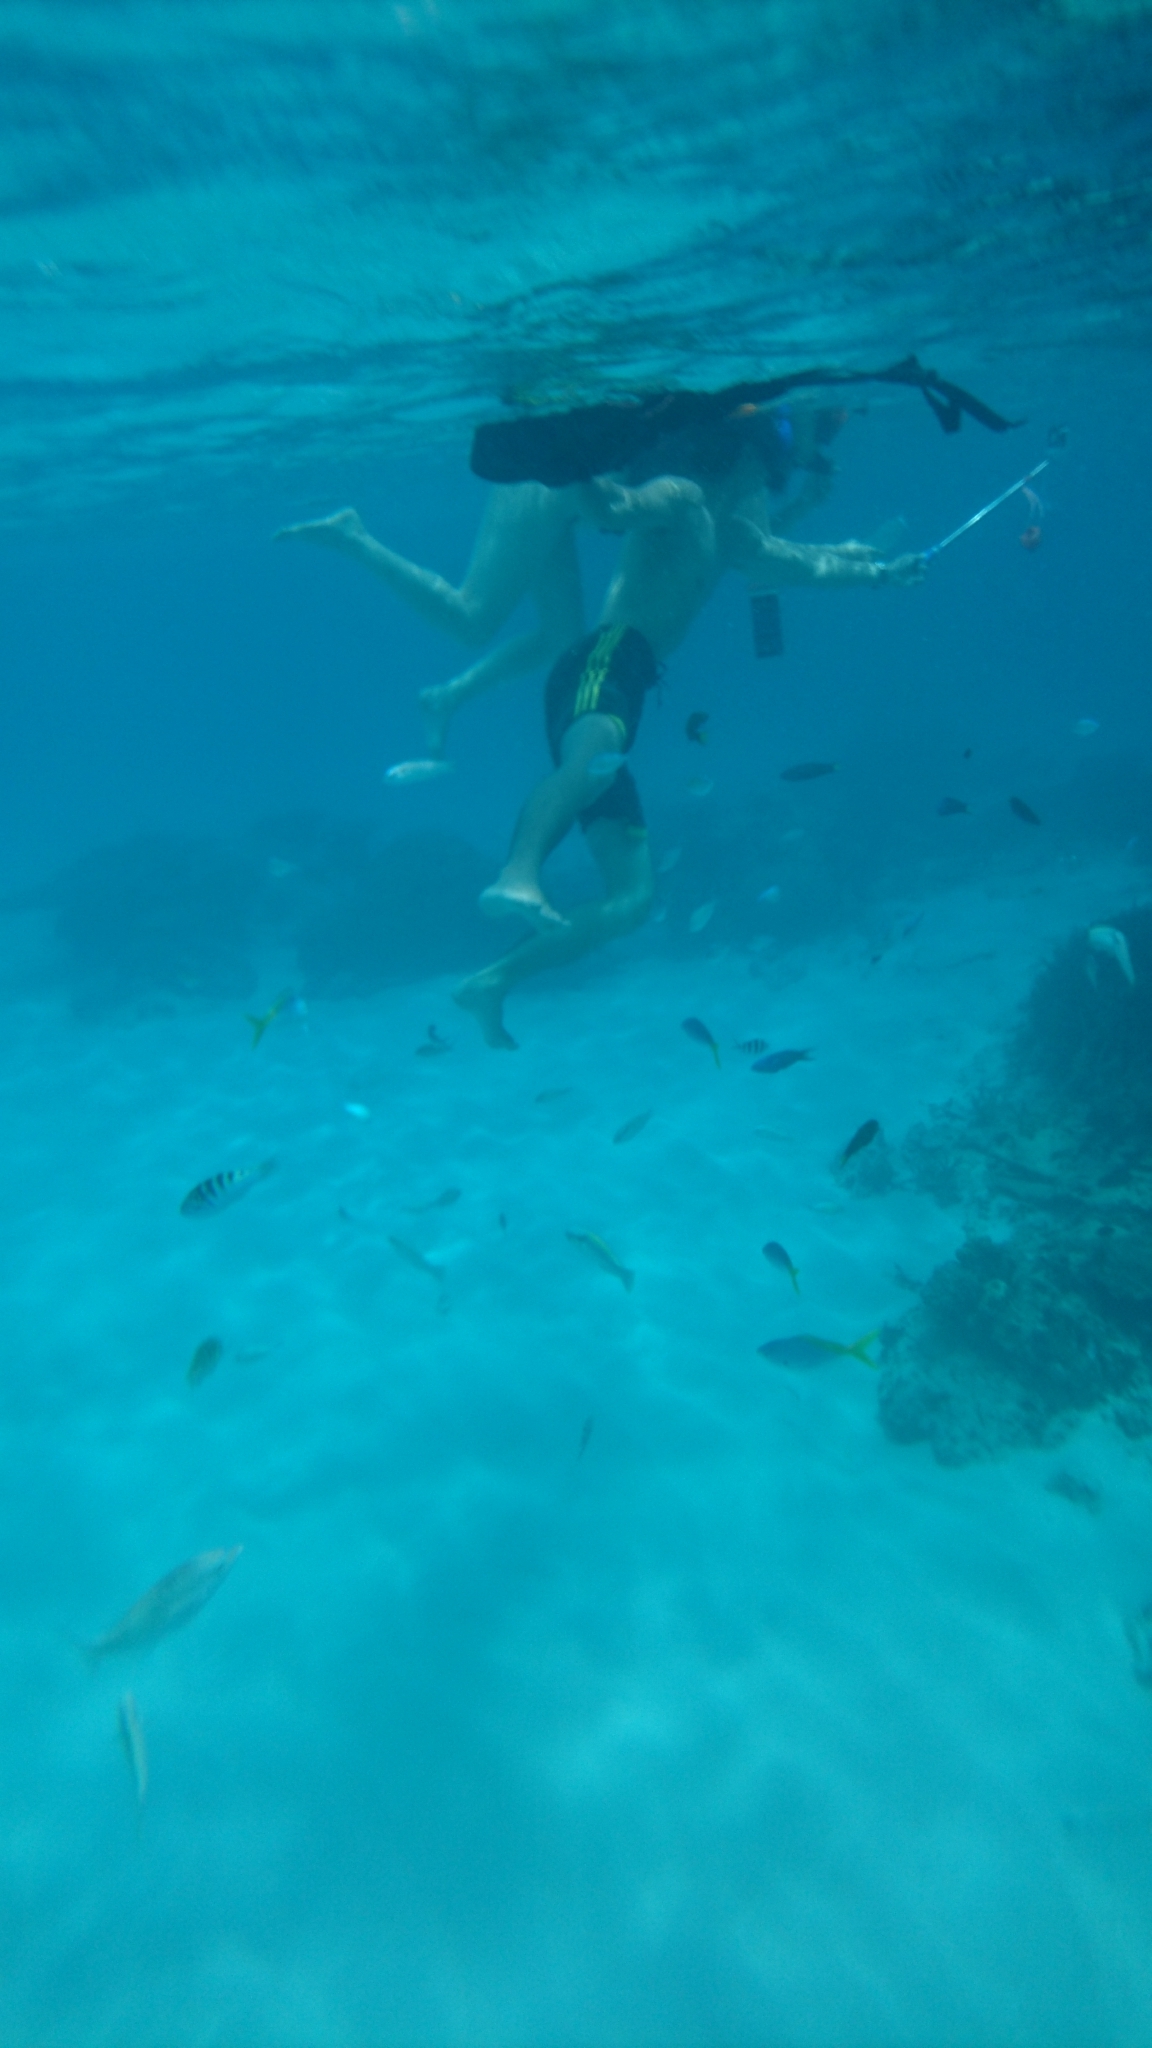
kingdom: Animalia
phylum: Chordata
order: Perciformes
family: Caesionidae
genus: Caesio
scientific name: Caesio teres
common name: Yellow and blueback fusilier
